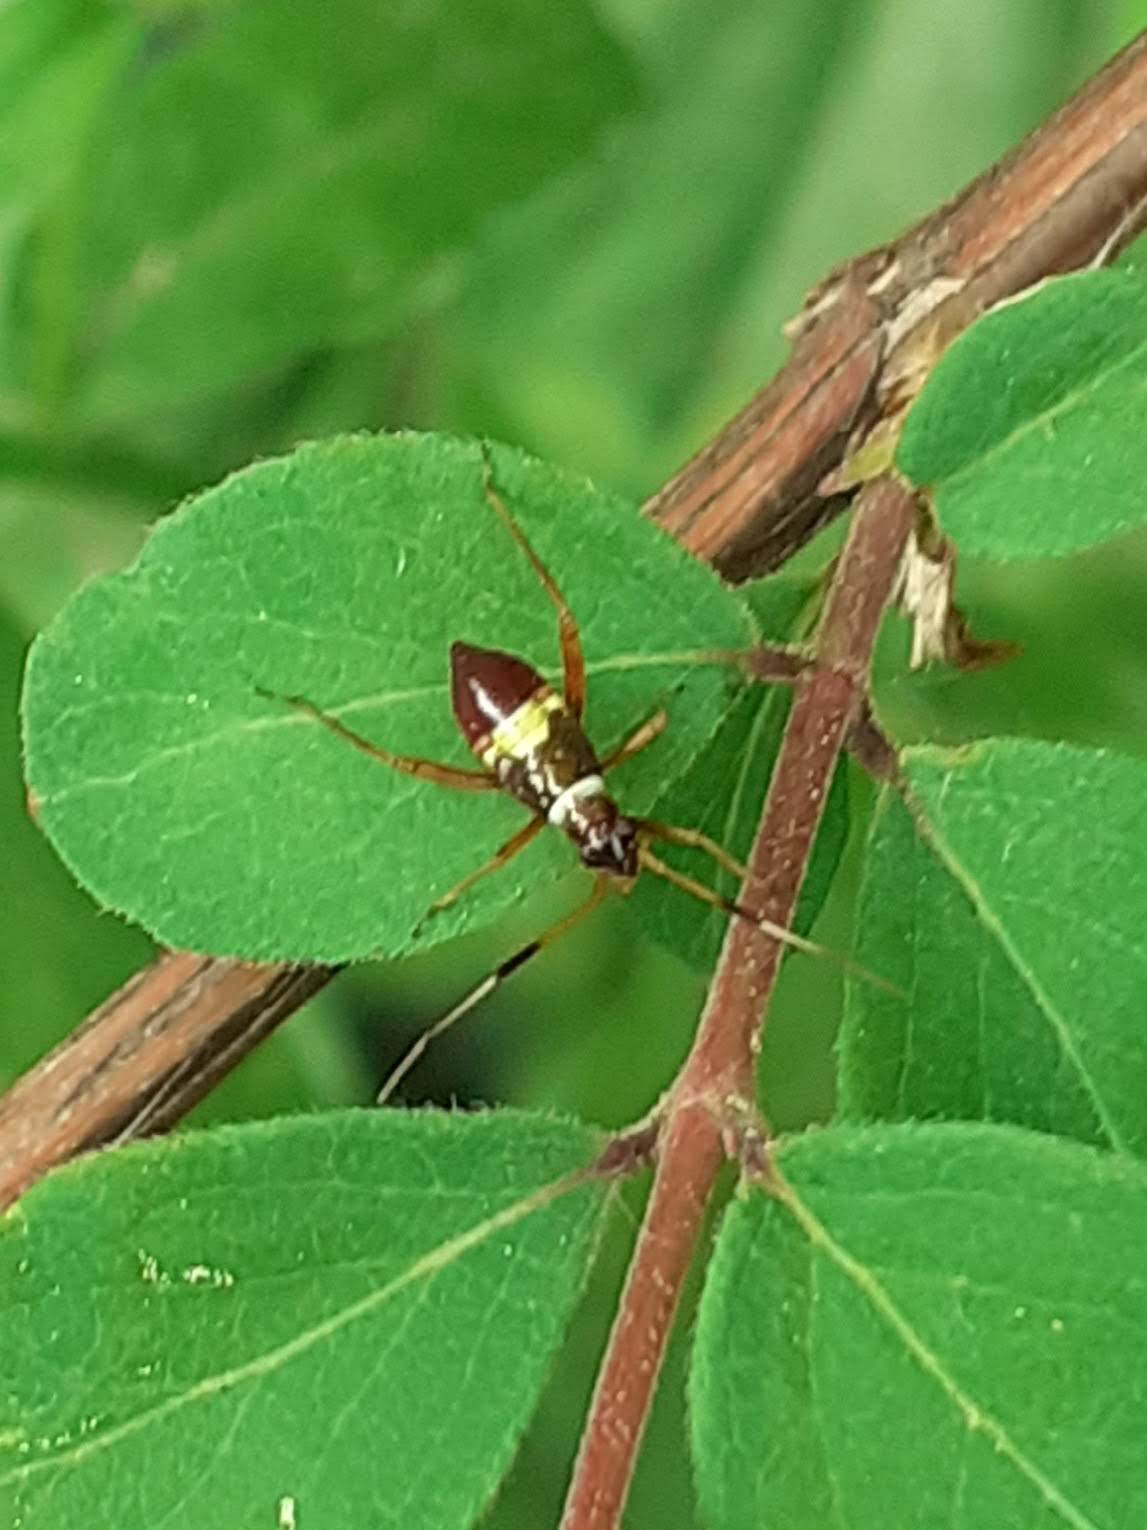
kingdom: Animalia
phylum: Arthropoda
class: Insecta
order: Hemiptera
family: Miridae
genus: Closterotomus
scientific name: Closterotomus biclavatus
